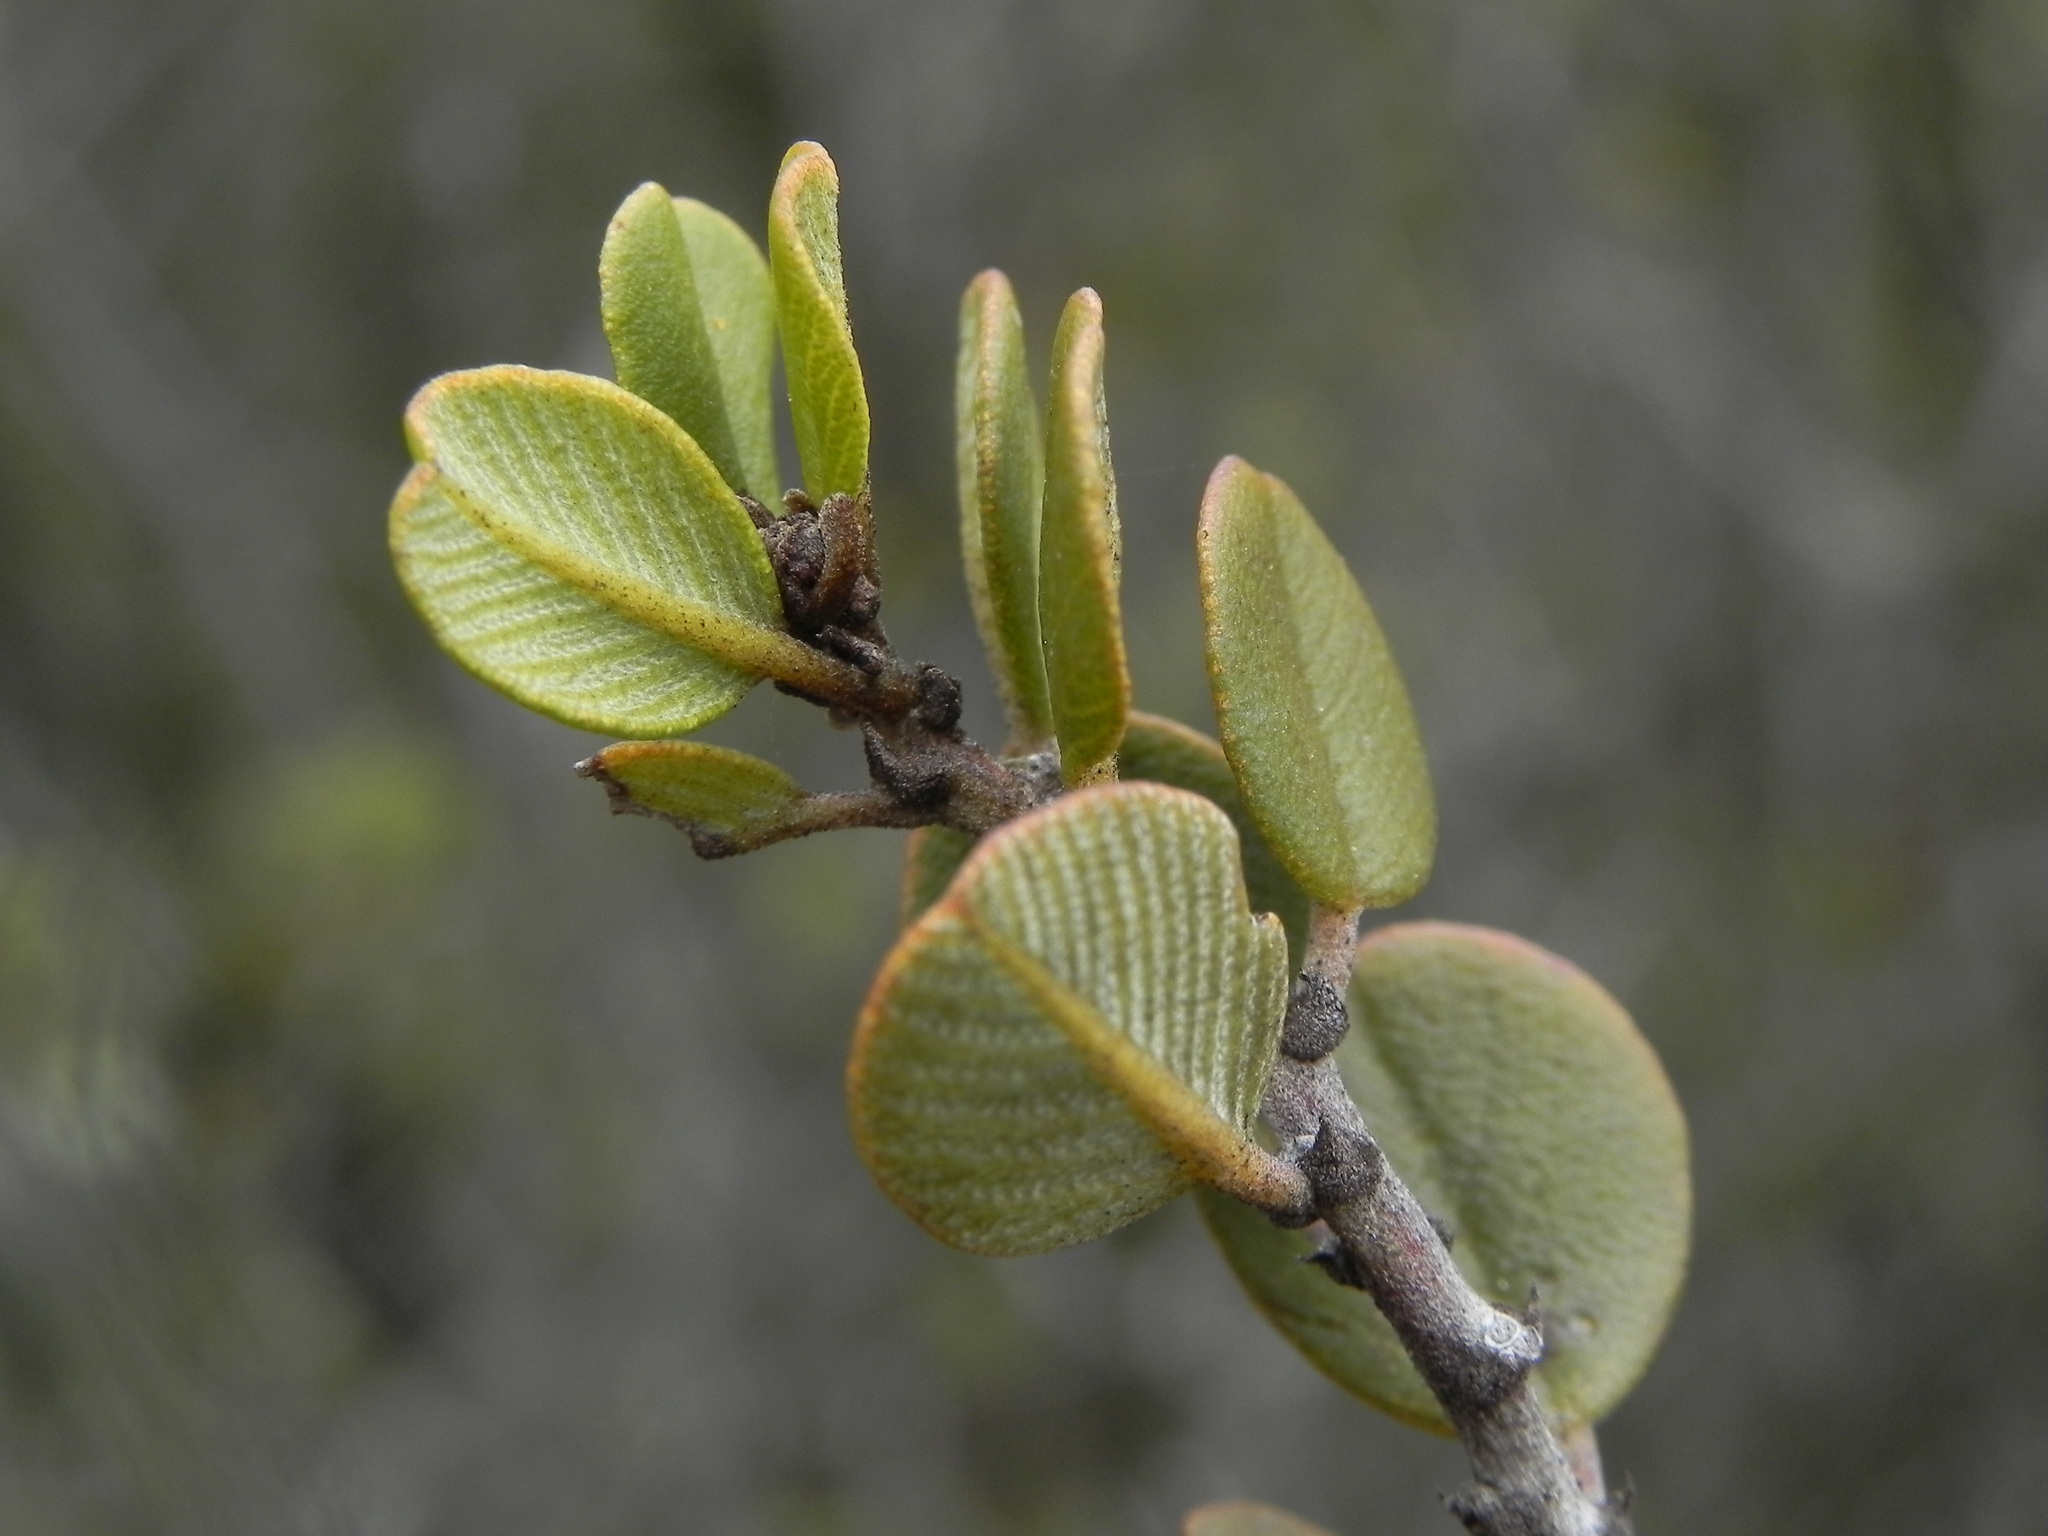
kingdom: Plantae
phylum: Tracheophyta
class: Magnoliopsida
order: Rosales
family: Rhamnaceae
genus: Ceanothus
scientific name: Ceanothus verrucosus
